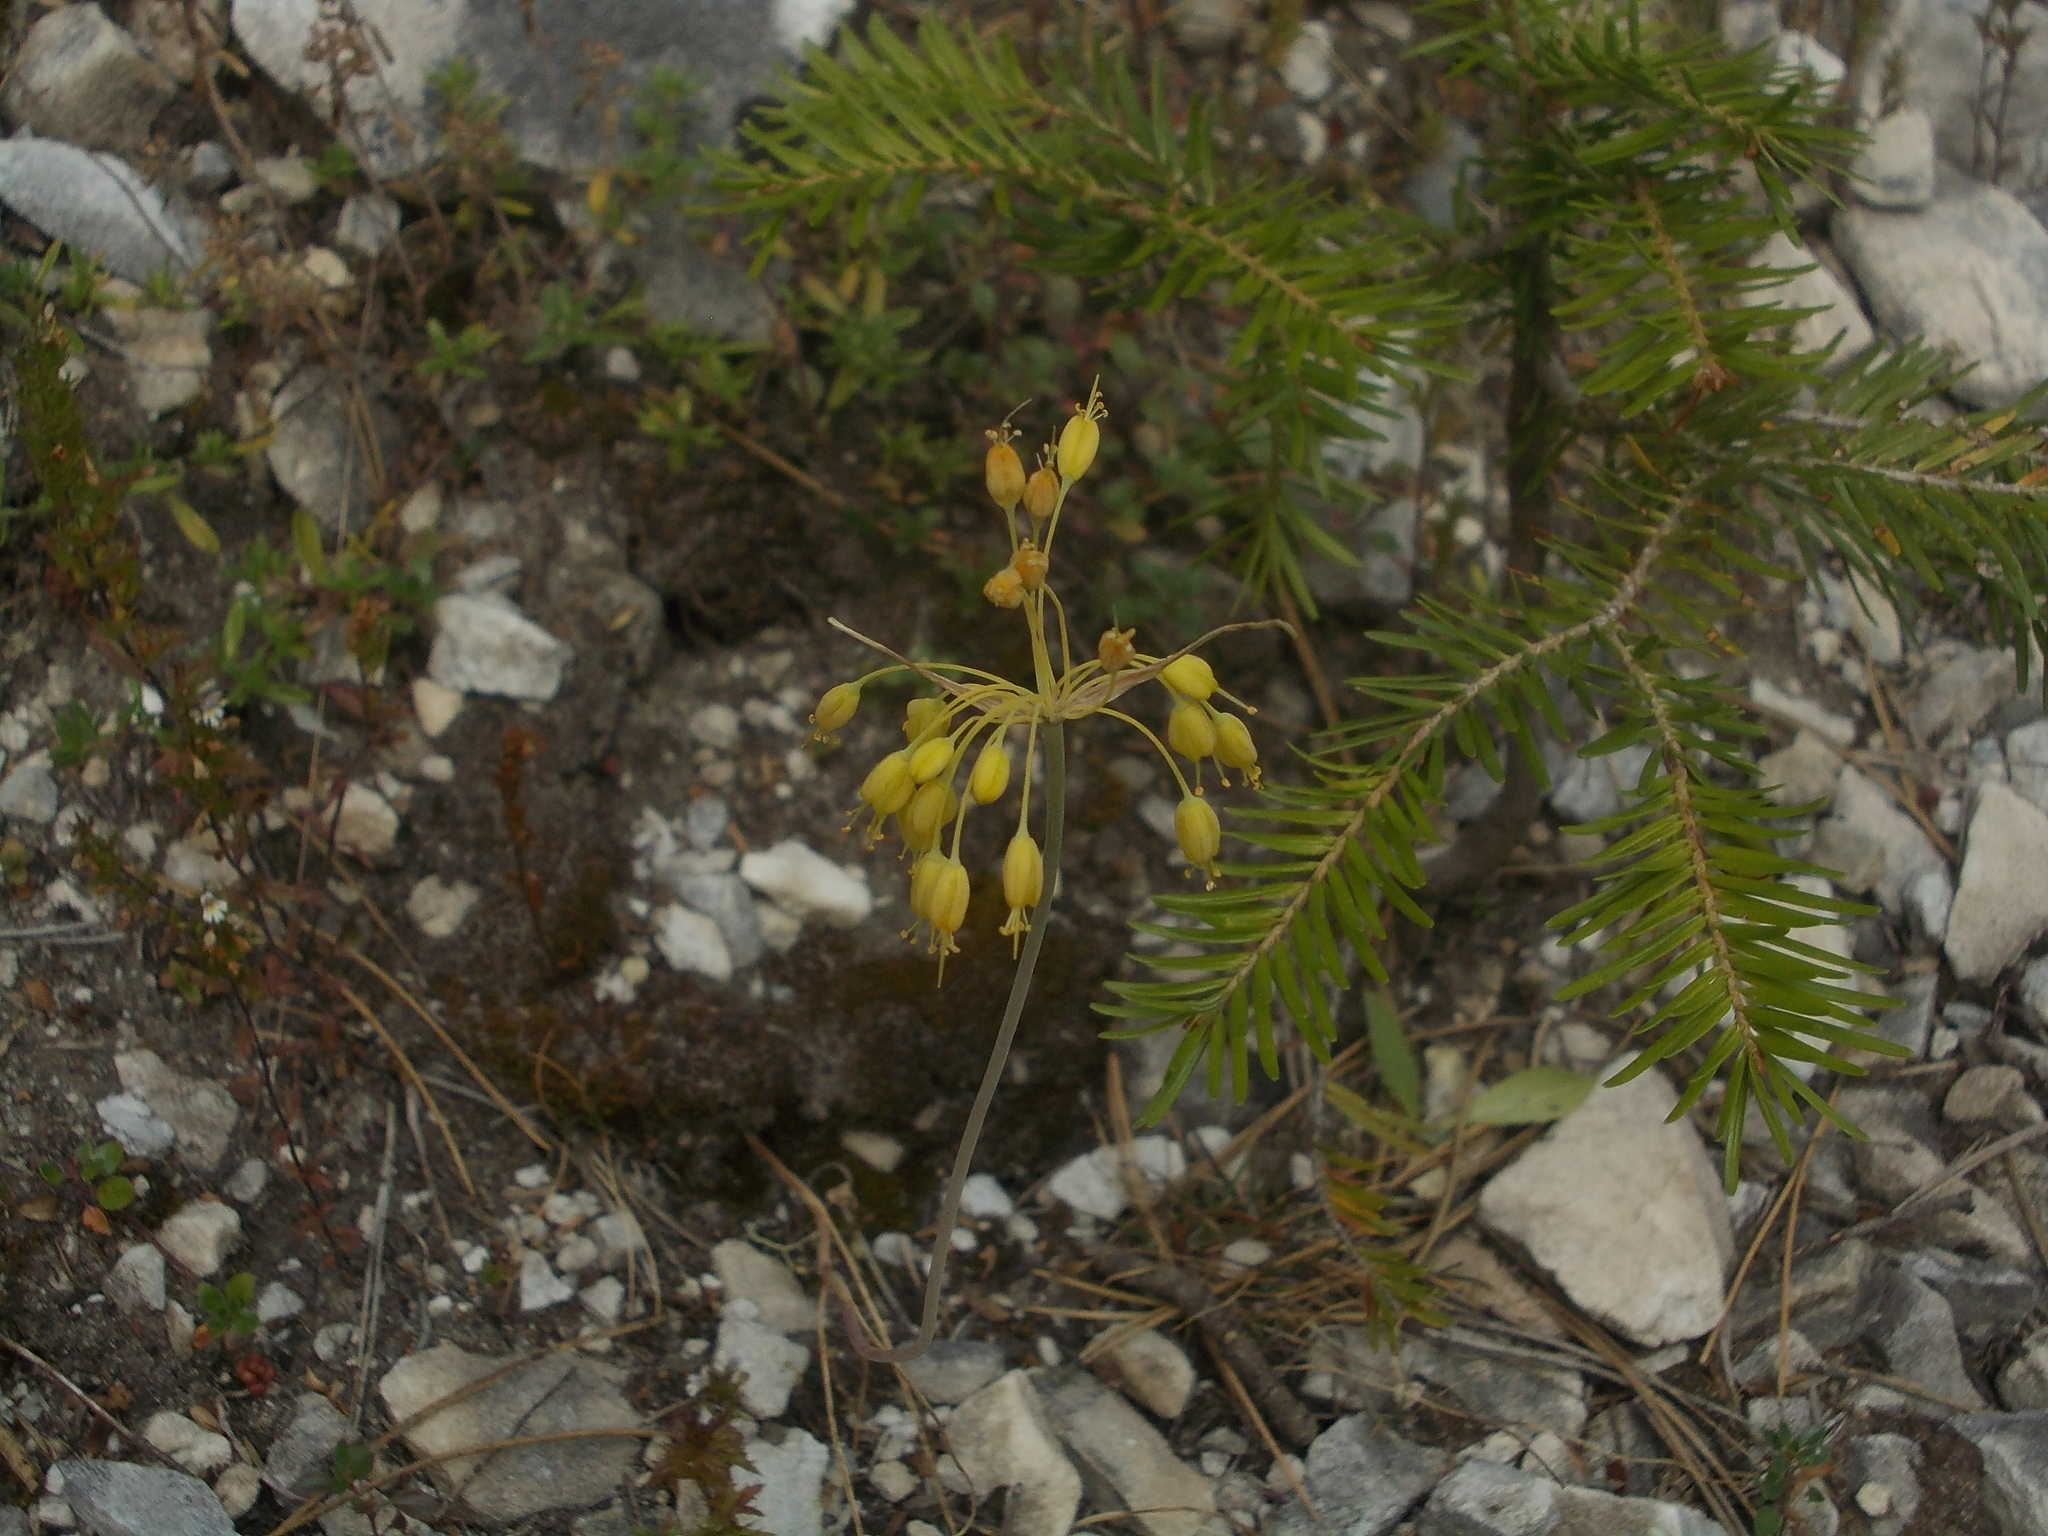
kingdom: Plantae
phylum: Tracheophyta
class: Liliopsida
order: Asparagales
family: Amaryllidaceae
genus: Allium
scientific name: Allium flavum
